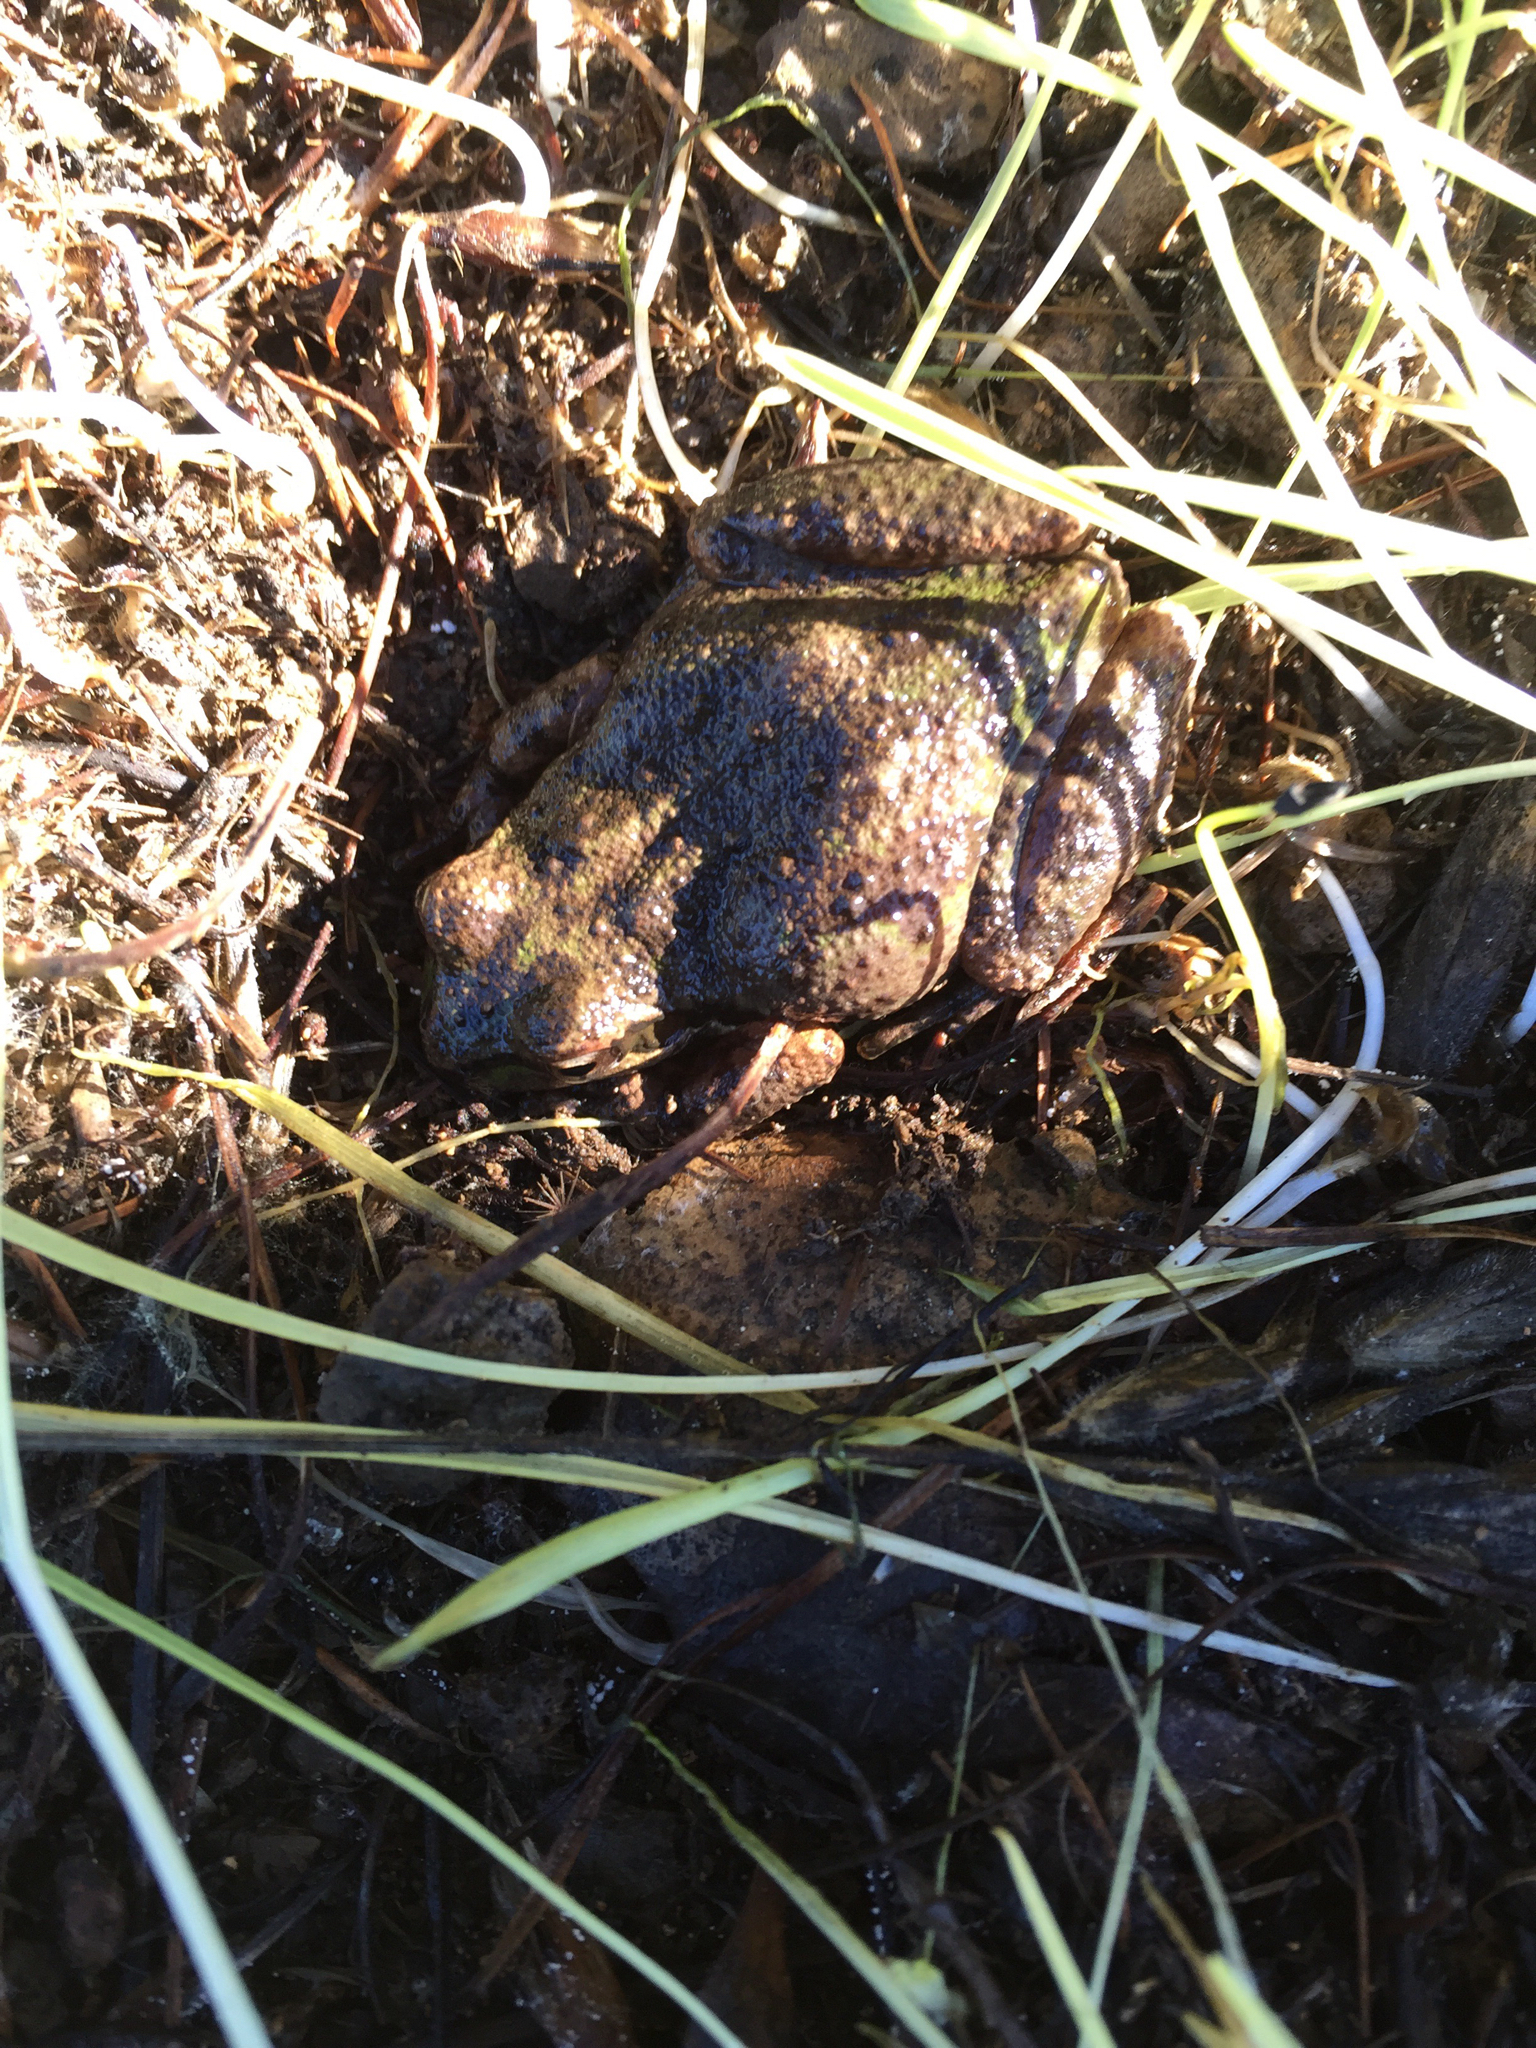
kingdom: Animalia
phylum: Chordata
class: Amphibia
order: Anura
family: Hylidae
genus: Pseudacris
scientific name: Pseudacris regilla
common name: Pacific chorus frog
